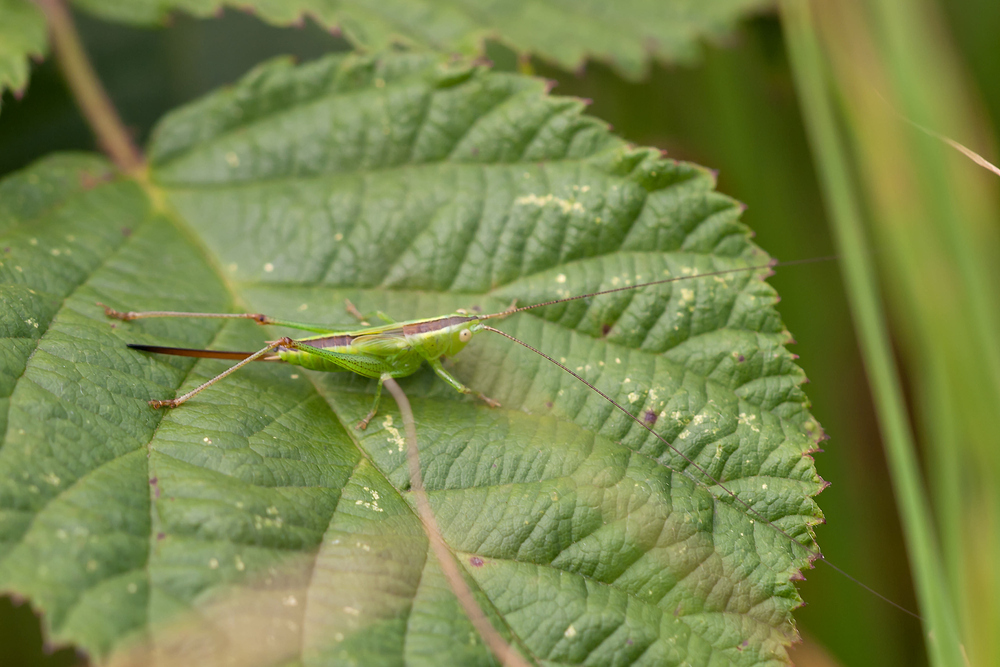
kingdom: Animalia
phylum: Arthropoda
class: Insecta
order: Orthoptera
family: Tettigoniidae
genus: Conocephalus
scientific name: Conocephalus fuscus
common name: Long-winged conehead
